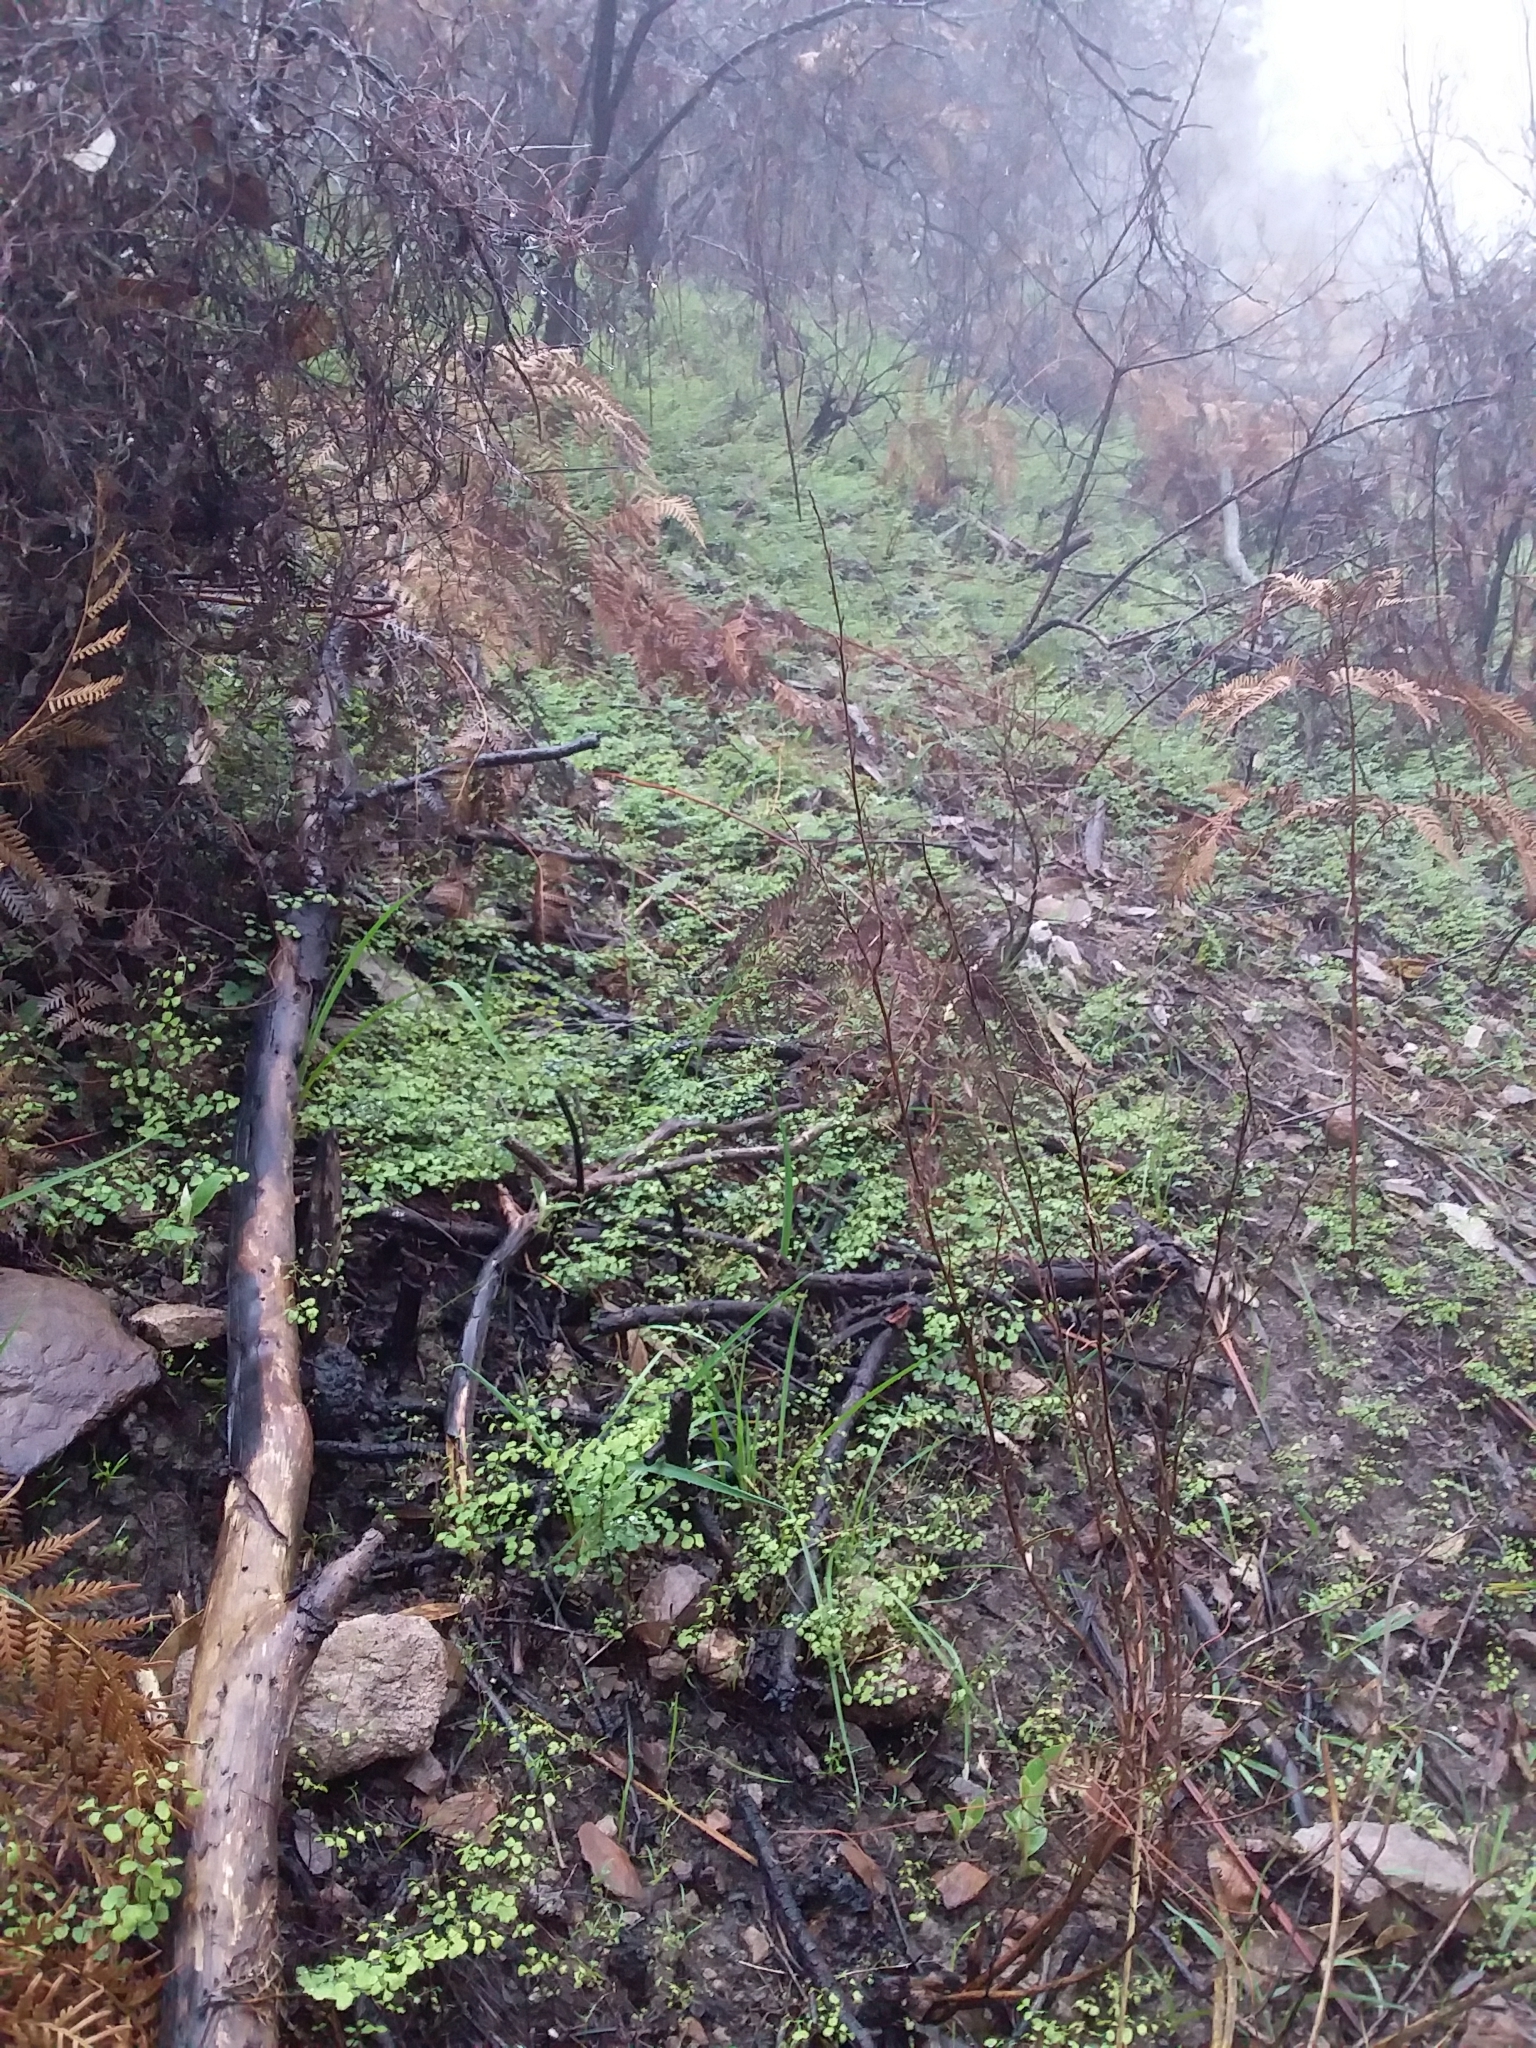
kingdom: Plantae
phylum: Tracheophyta
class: Polypodiopsida
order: Polypodiales
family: Pteridaceae
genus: Adiantum
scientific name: Adiantum aethiopicum
